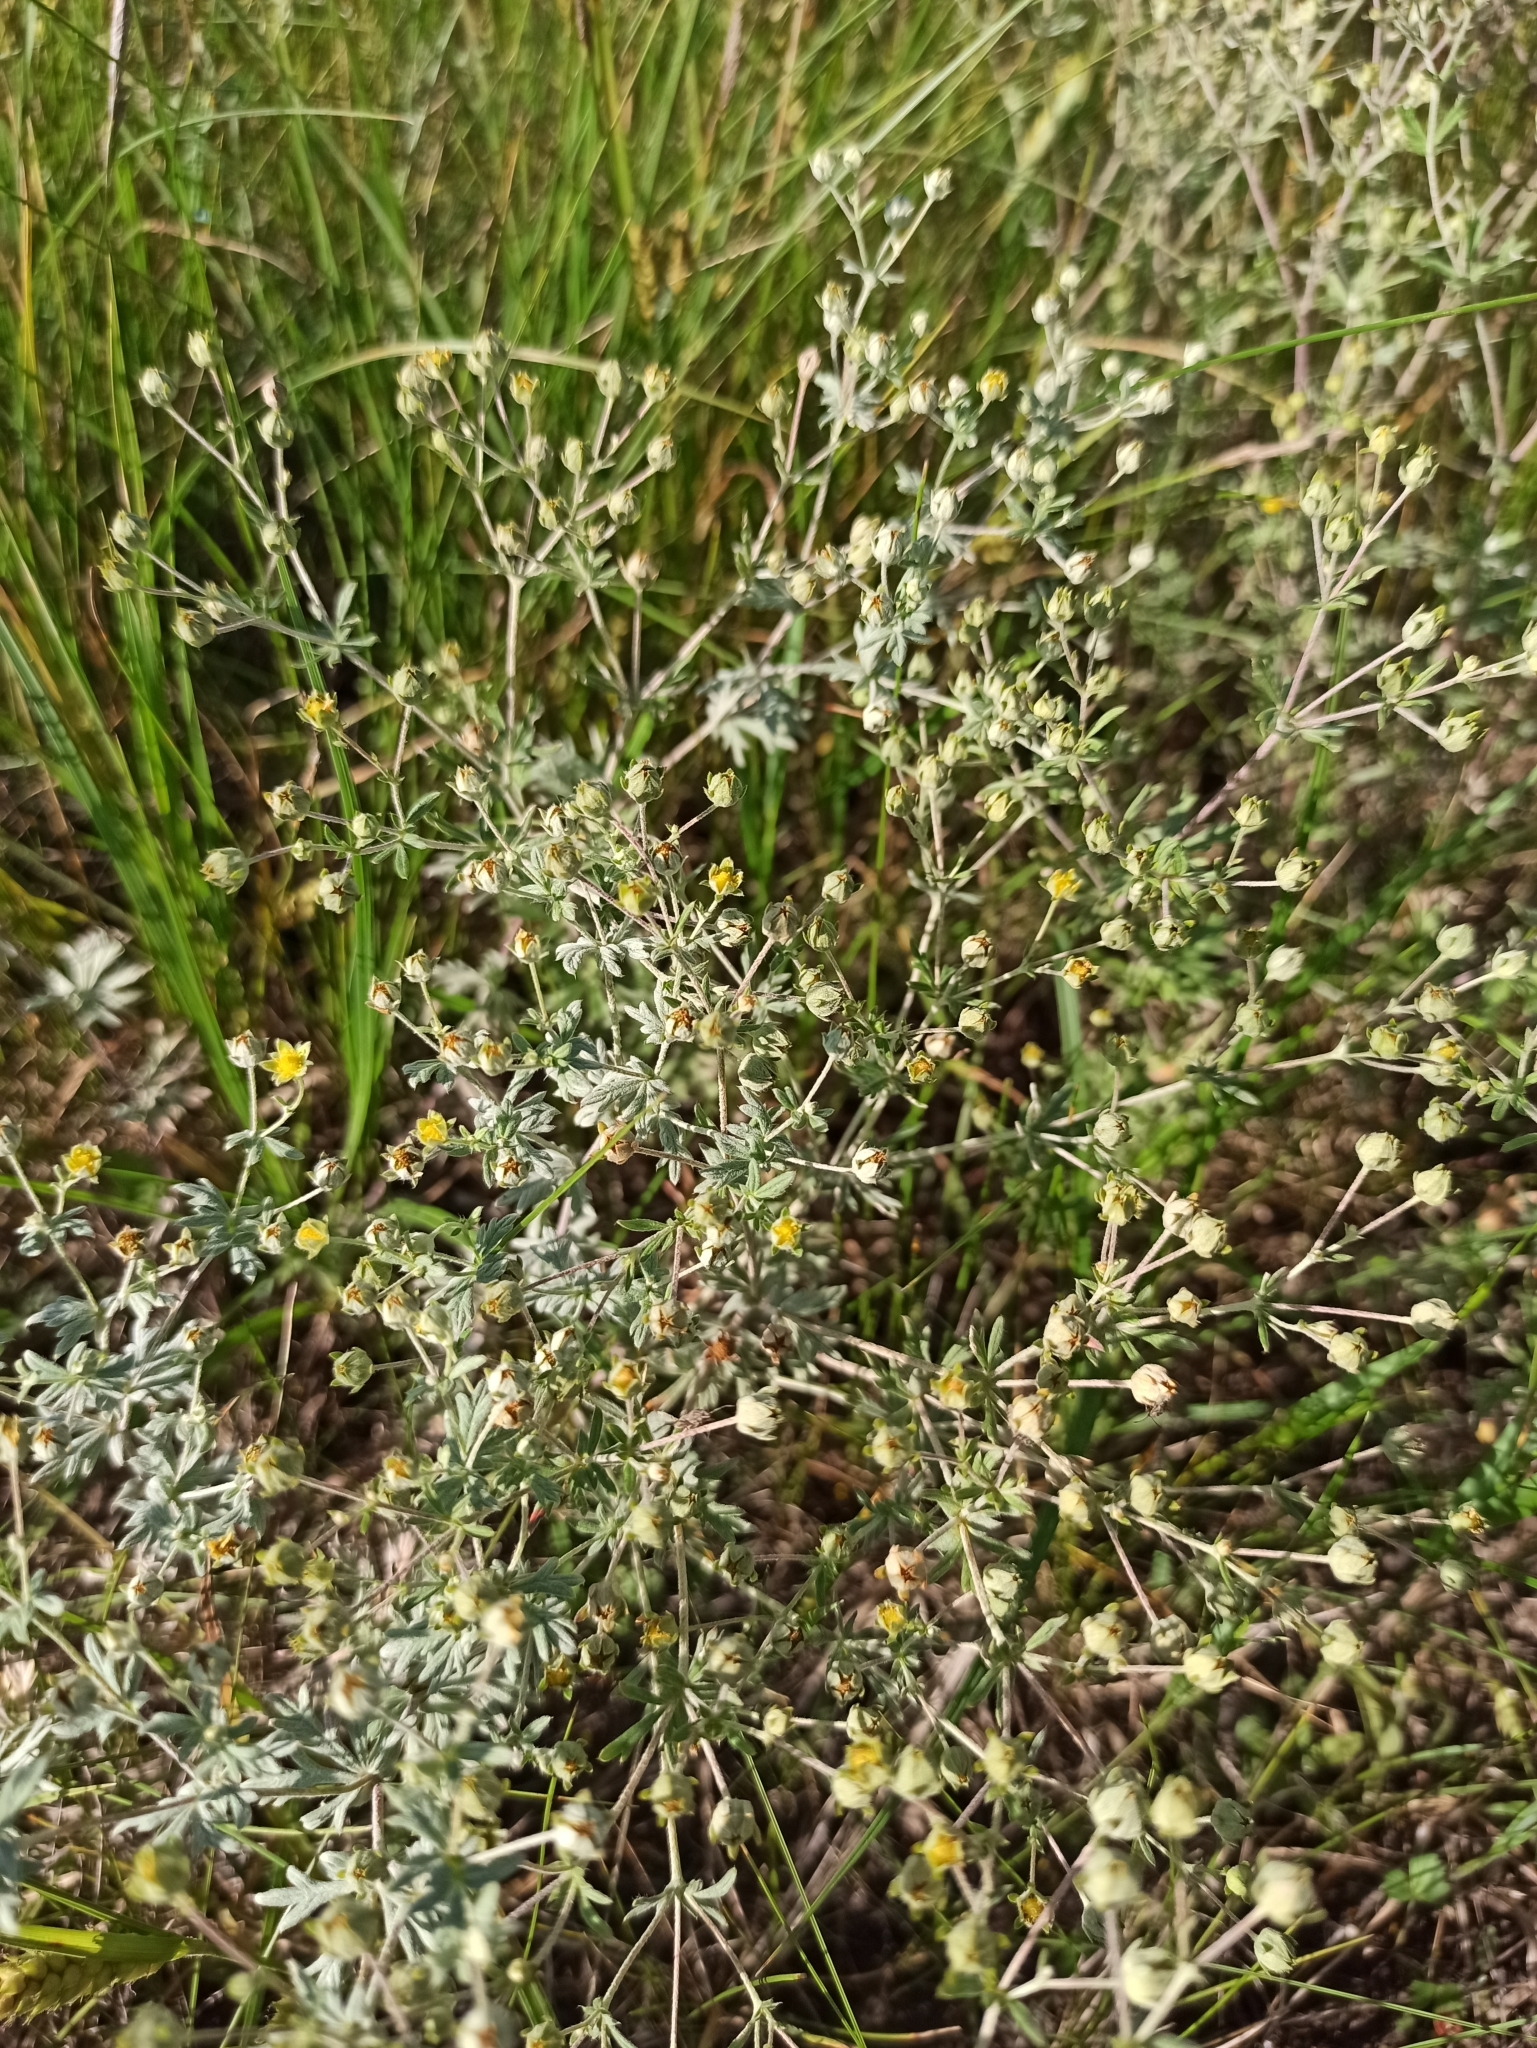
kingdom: Plantae
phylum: Tracheophyta
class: Magnoliopsida
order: Rosales
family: Rosaceae
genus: Potentilla
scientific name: Potentilla argentea
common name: Hoary cinquefoil
